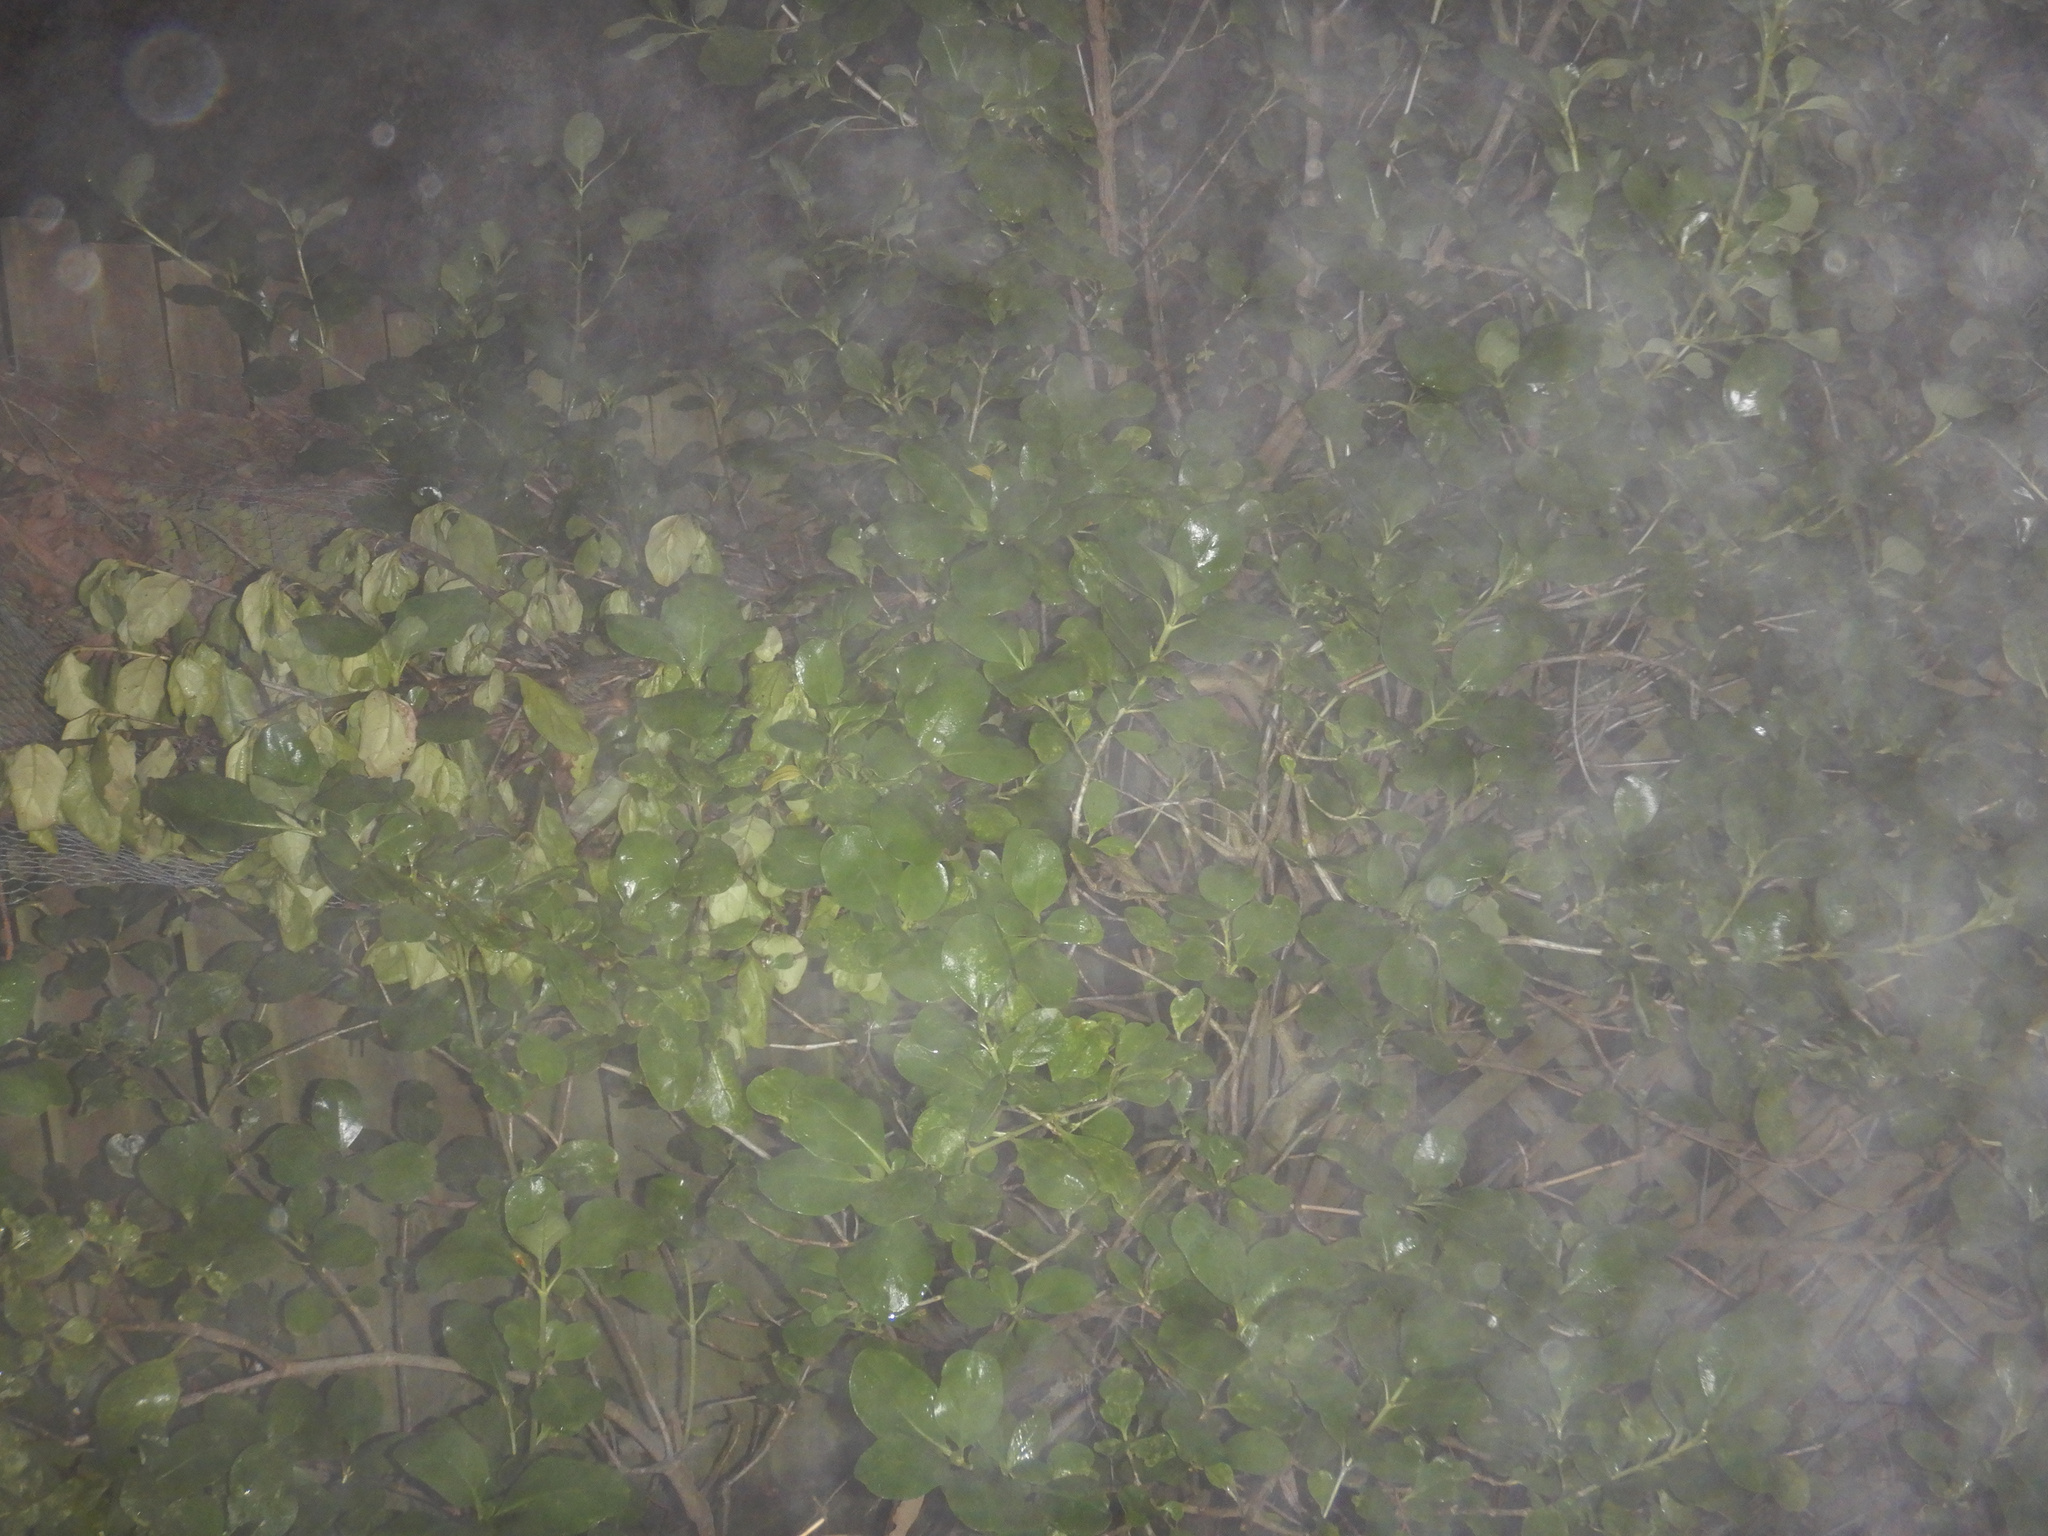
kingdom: Plantae
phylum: Tracheophyta
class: Magnoliopsida
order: Gentianales
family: Rubiaceae
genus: Coprosma
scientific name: Coprosma repens
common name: Tree bedstraw
